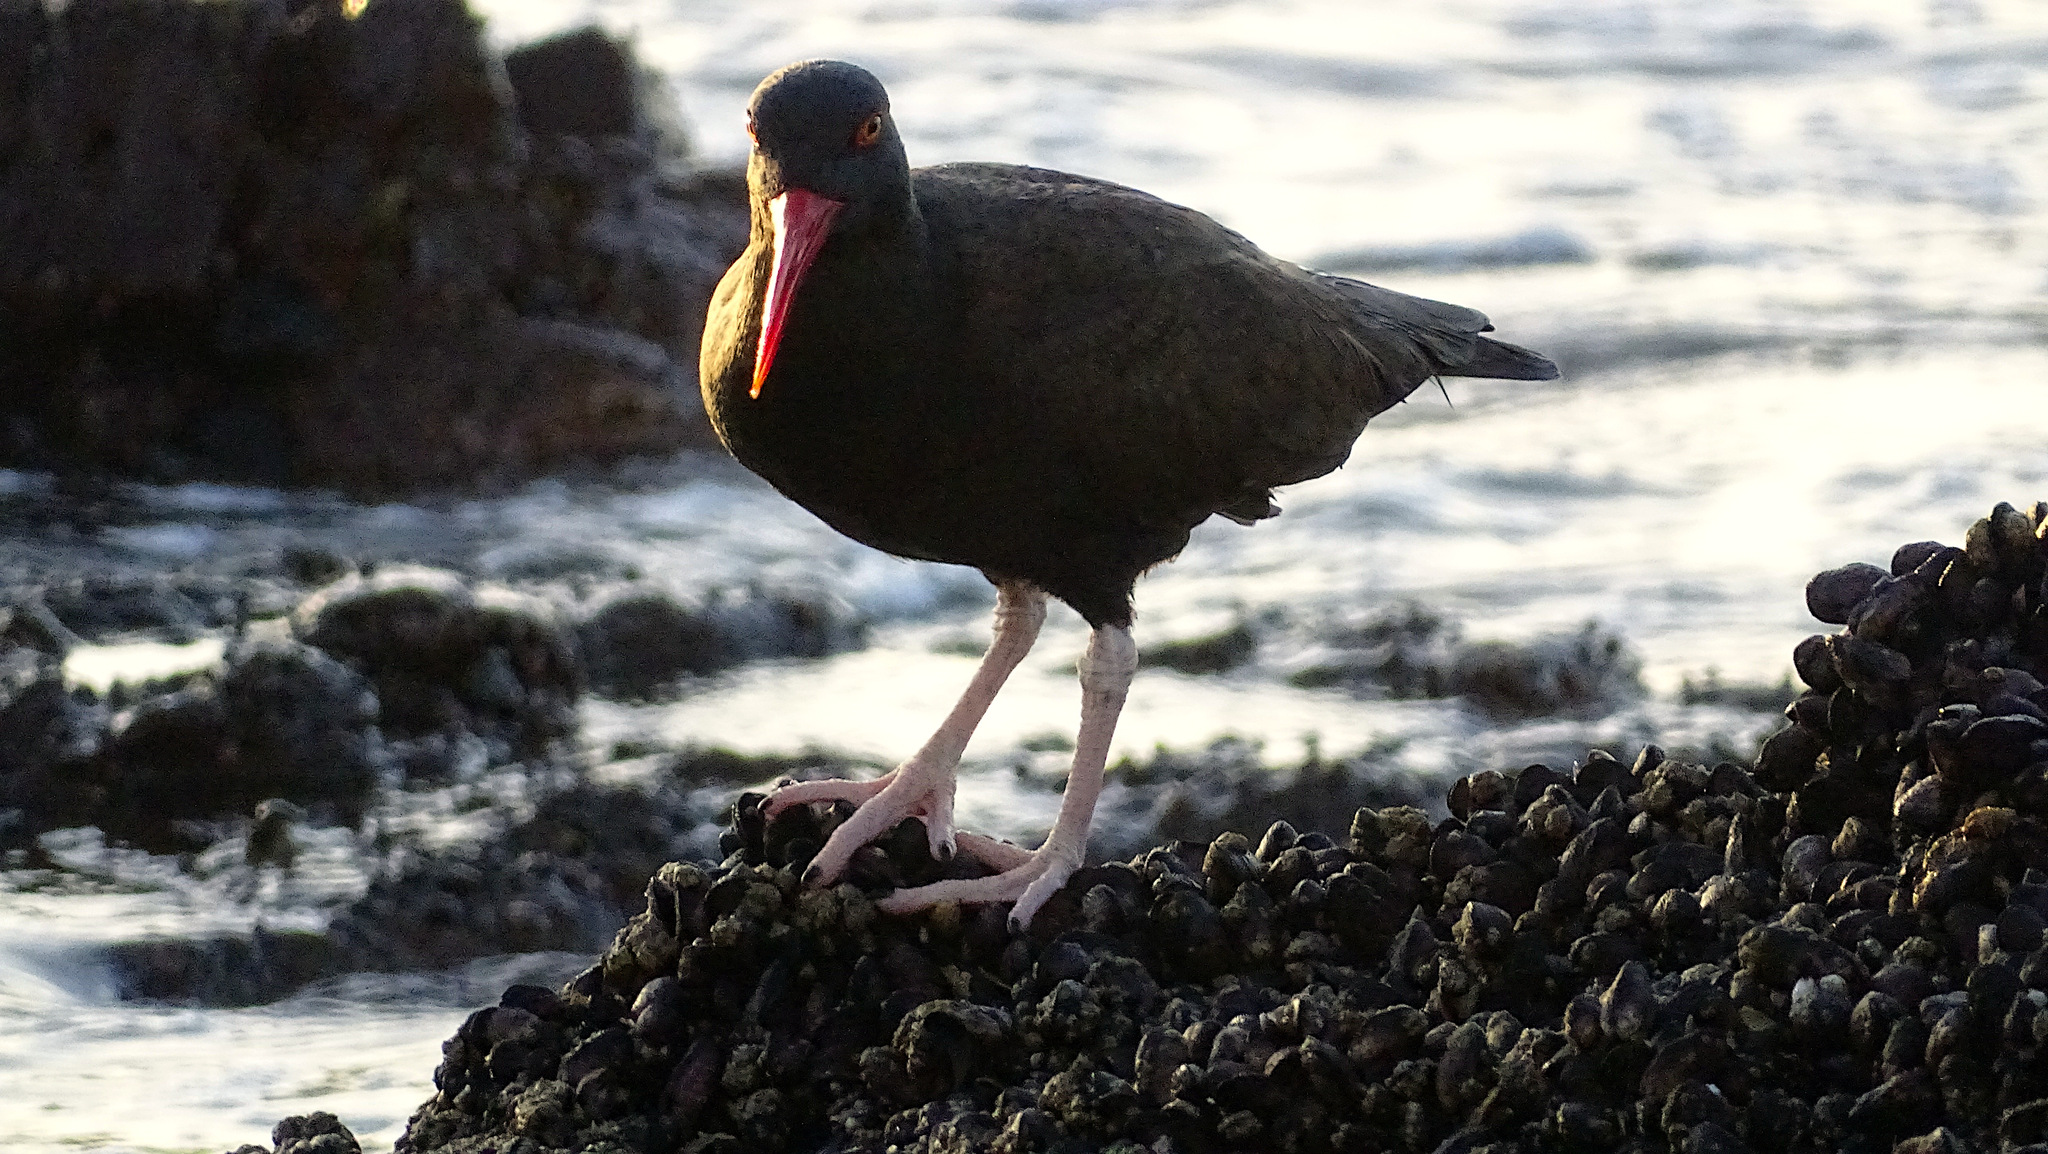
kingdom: Animalia
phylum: Chordata
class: Aves
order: Charadriiformes
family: Haematopodidae
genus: Haematopus
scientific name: Haematopus ater
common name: Blackish oystercatcher
